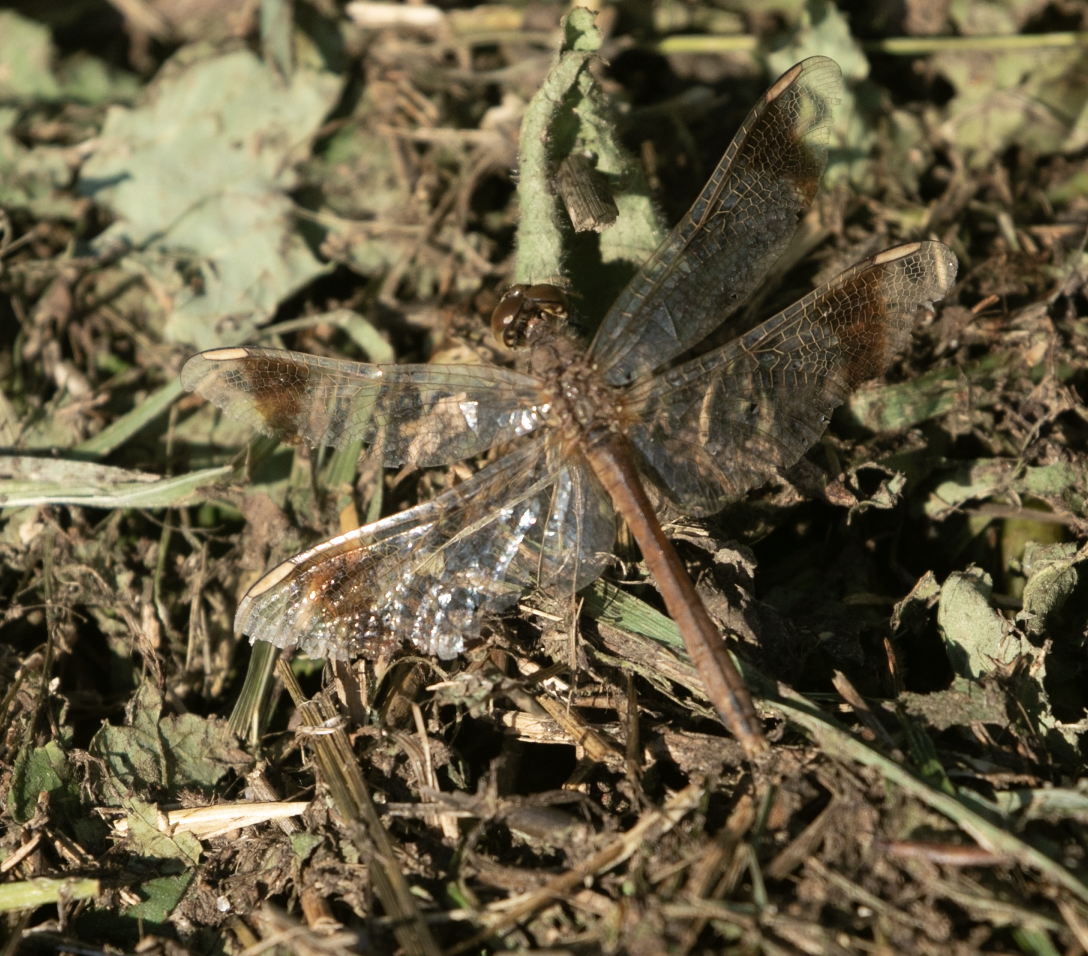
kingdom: Animalia
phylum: Arthropoda
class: Insecta
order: Odonata
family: Libellulidae
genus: Sympetrum
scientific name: Sympetrum pedemontanum
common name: Banded darter
